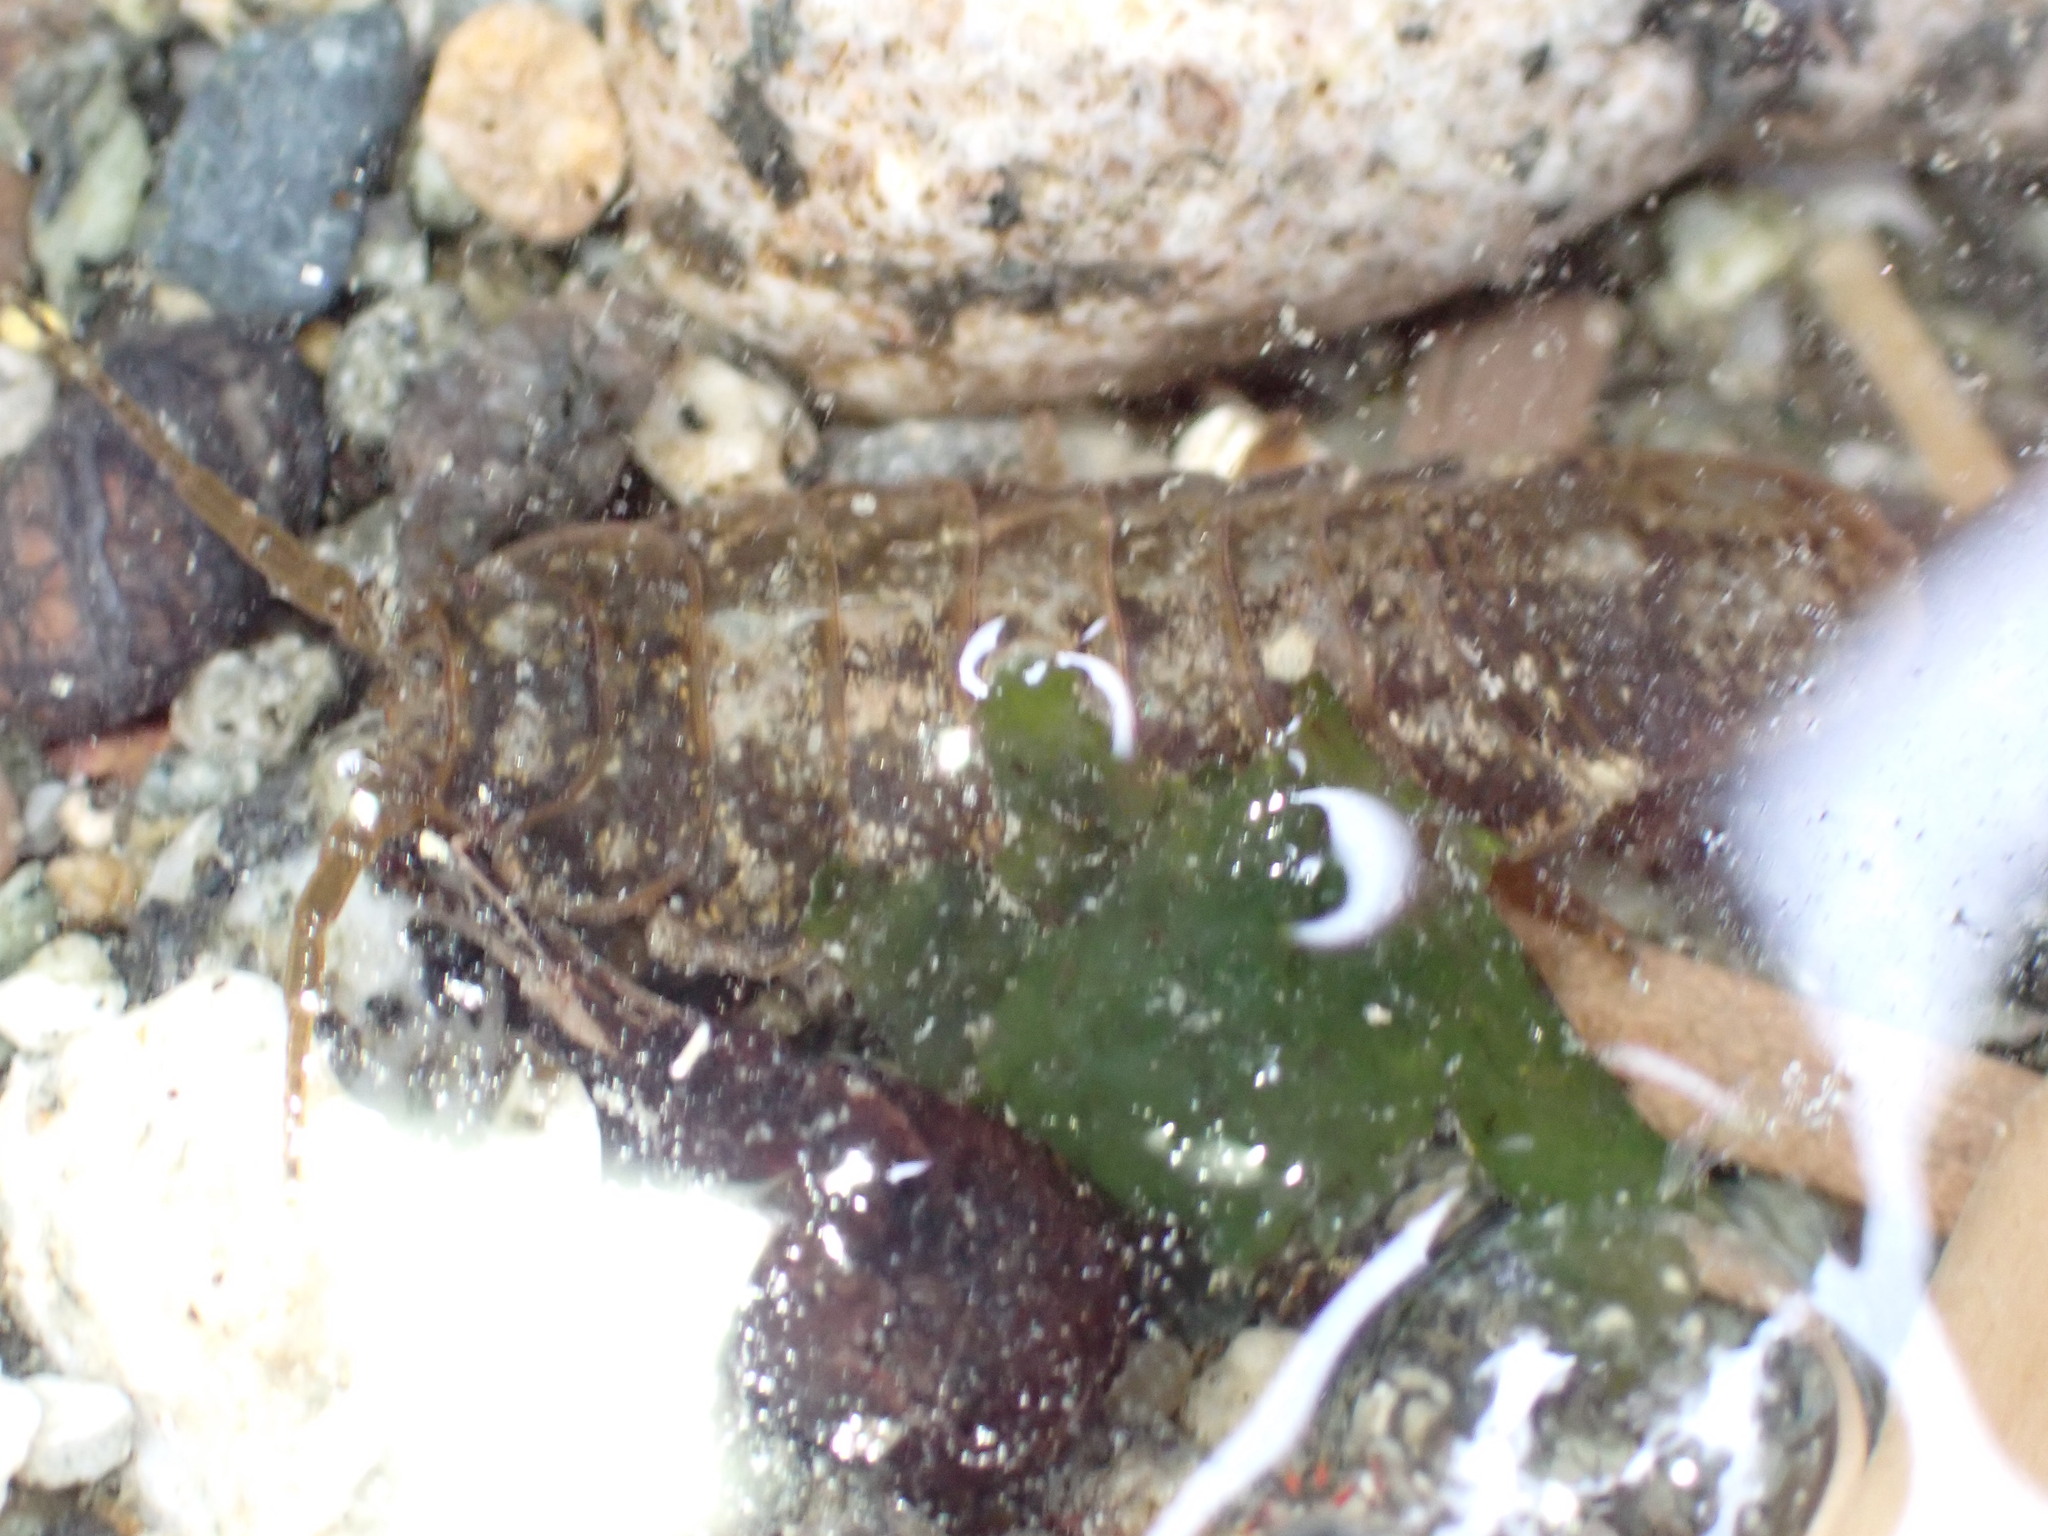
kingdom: Animalia
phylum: Arthropoda
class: Malacostraca
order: Isopoda
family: Idoteidae
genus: Pentidotea
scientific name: Pentidotea wosnesenskii
